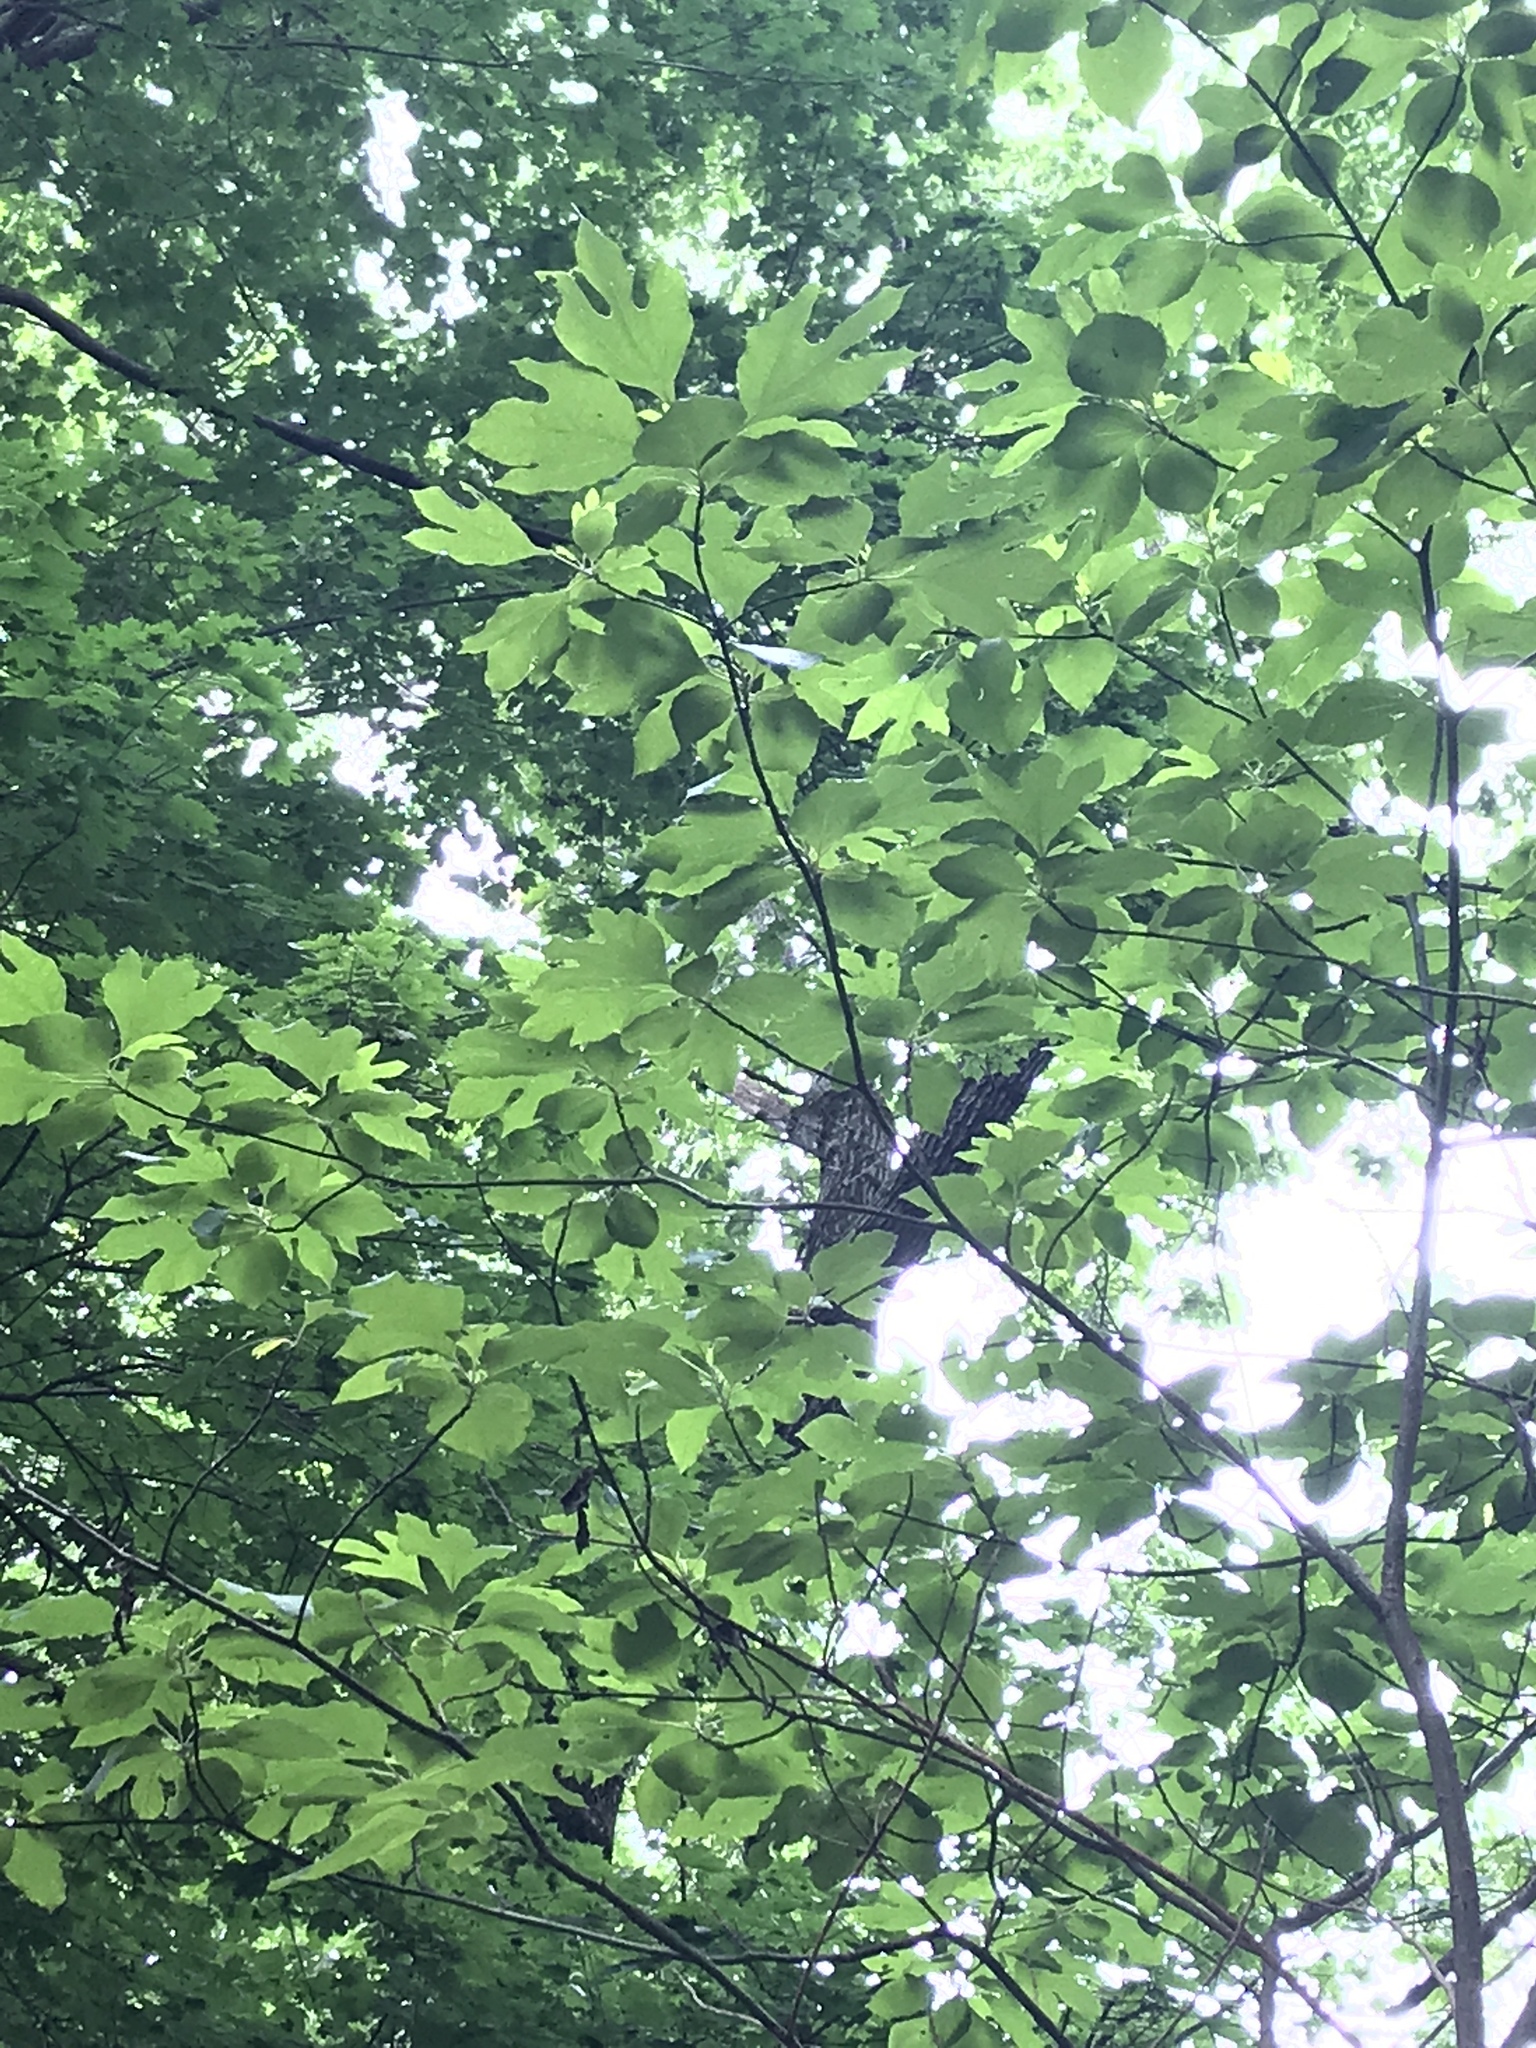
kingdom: Plantae
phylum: Tracheophyta
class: Magnoliopsida
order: Laurales
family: Lauraceae
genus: Sassafras
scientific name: Sassafras albidum
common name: Sassafras
